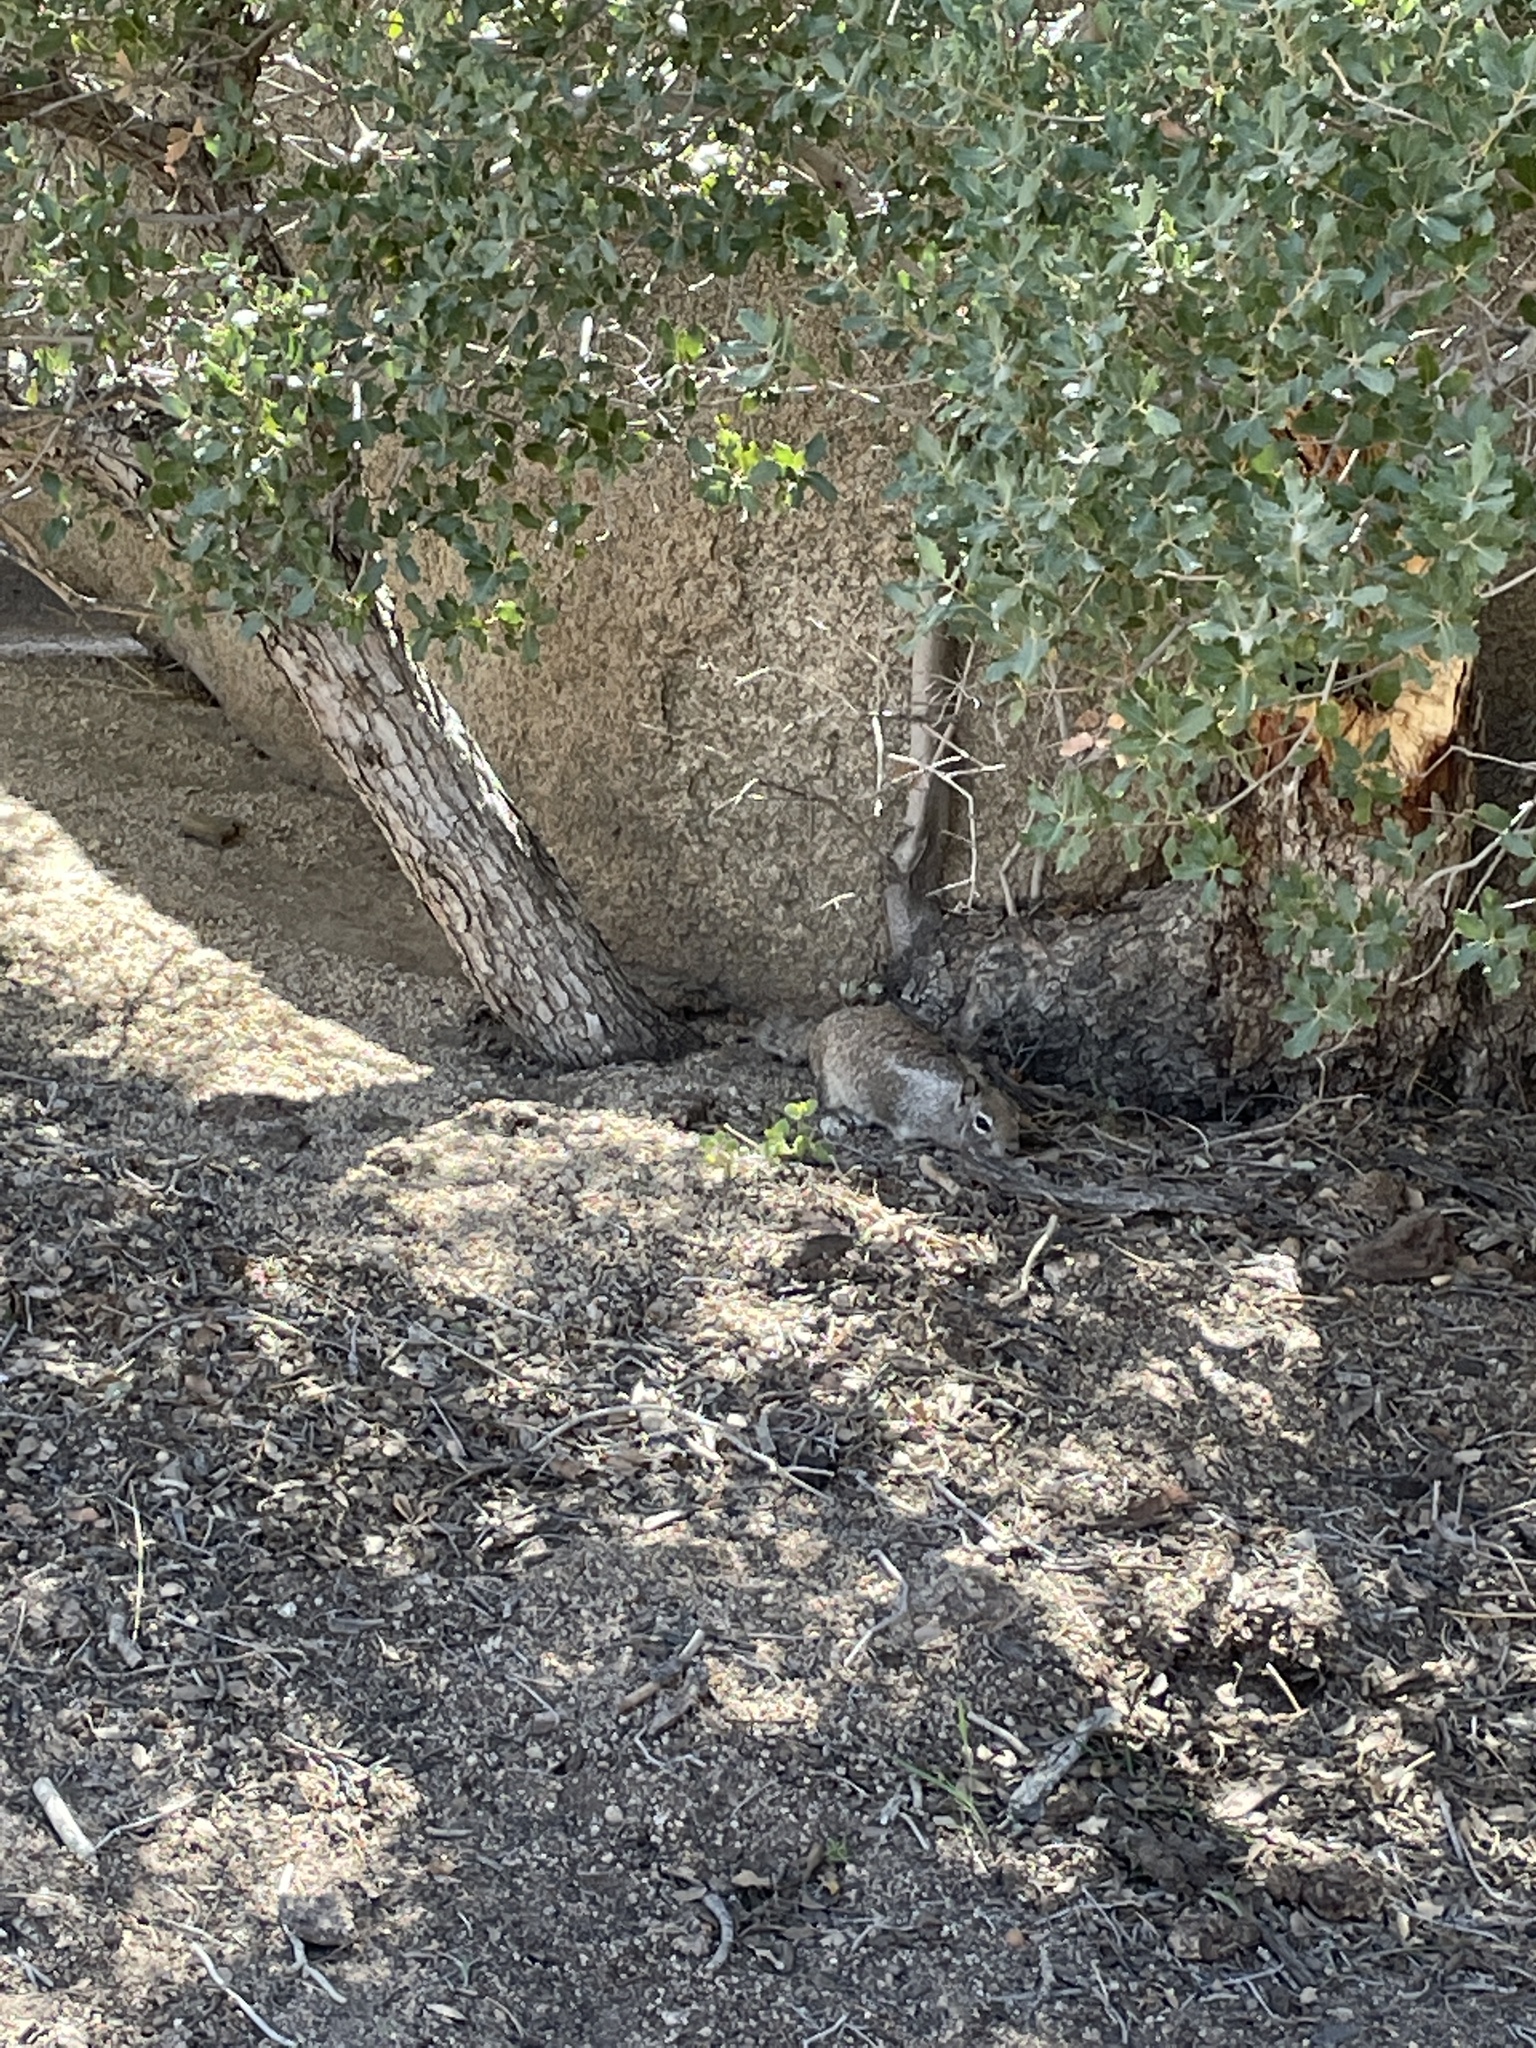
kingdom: Animalia
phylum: Chordata
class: Mammalia
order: Rodentia
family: Sciuridae
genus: Otospermophilus
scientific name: Otospermophilus beecheyi
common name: California ground squirrel
